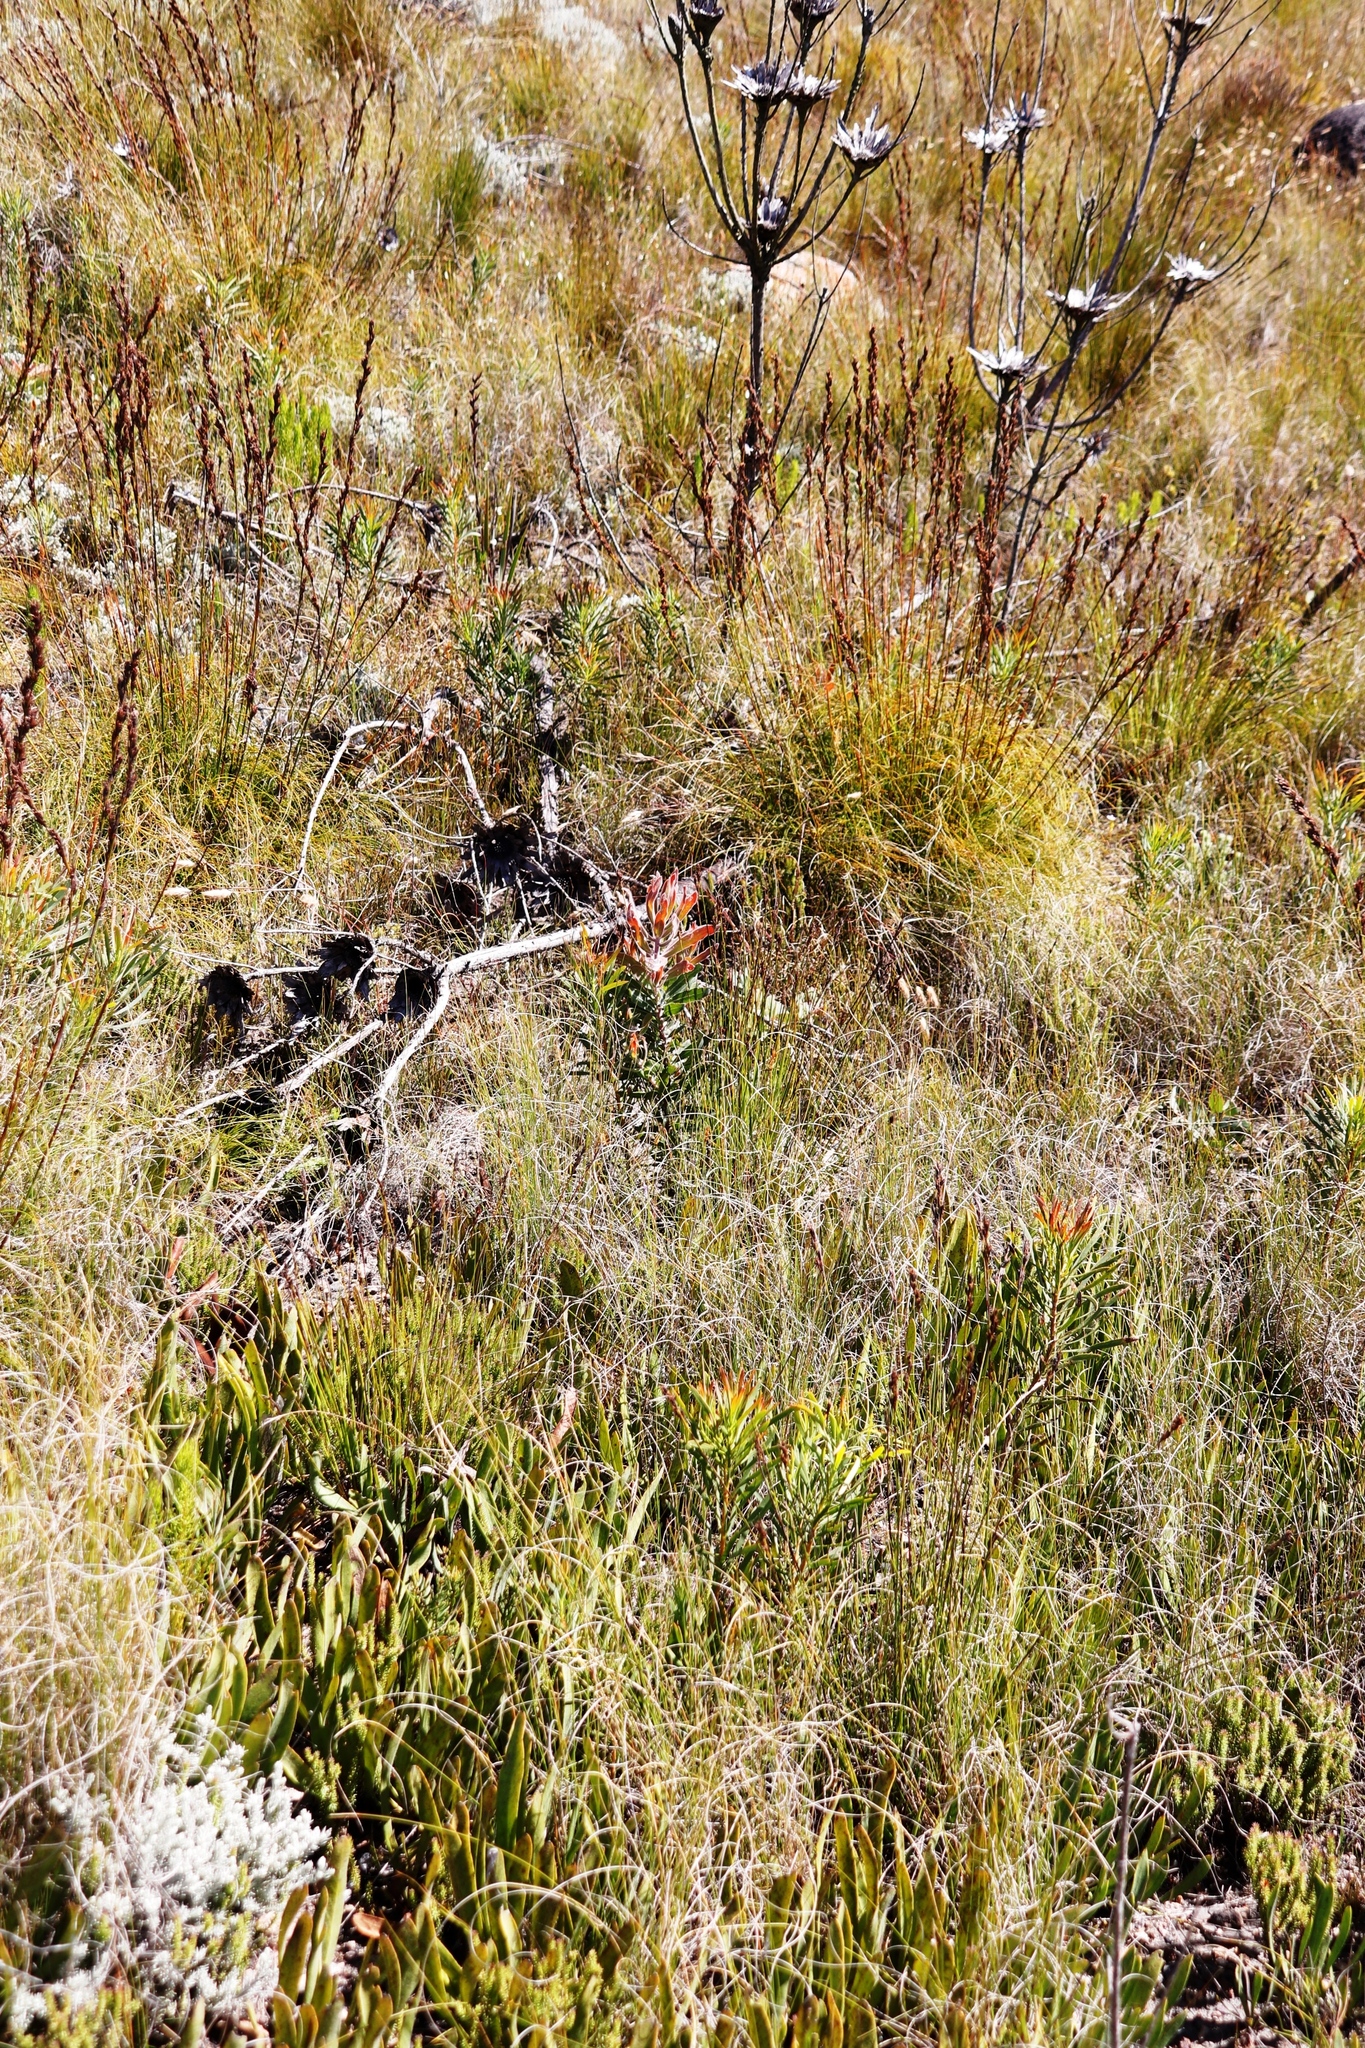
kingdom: Plantae
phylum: Tracheophyta
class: Magnoliopsida
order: Proteales
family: Proteaceae
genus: Protea
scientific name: Protea neriifolia
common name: Blue sugarbush
